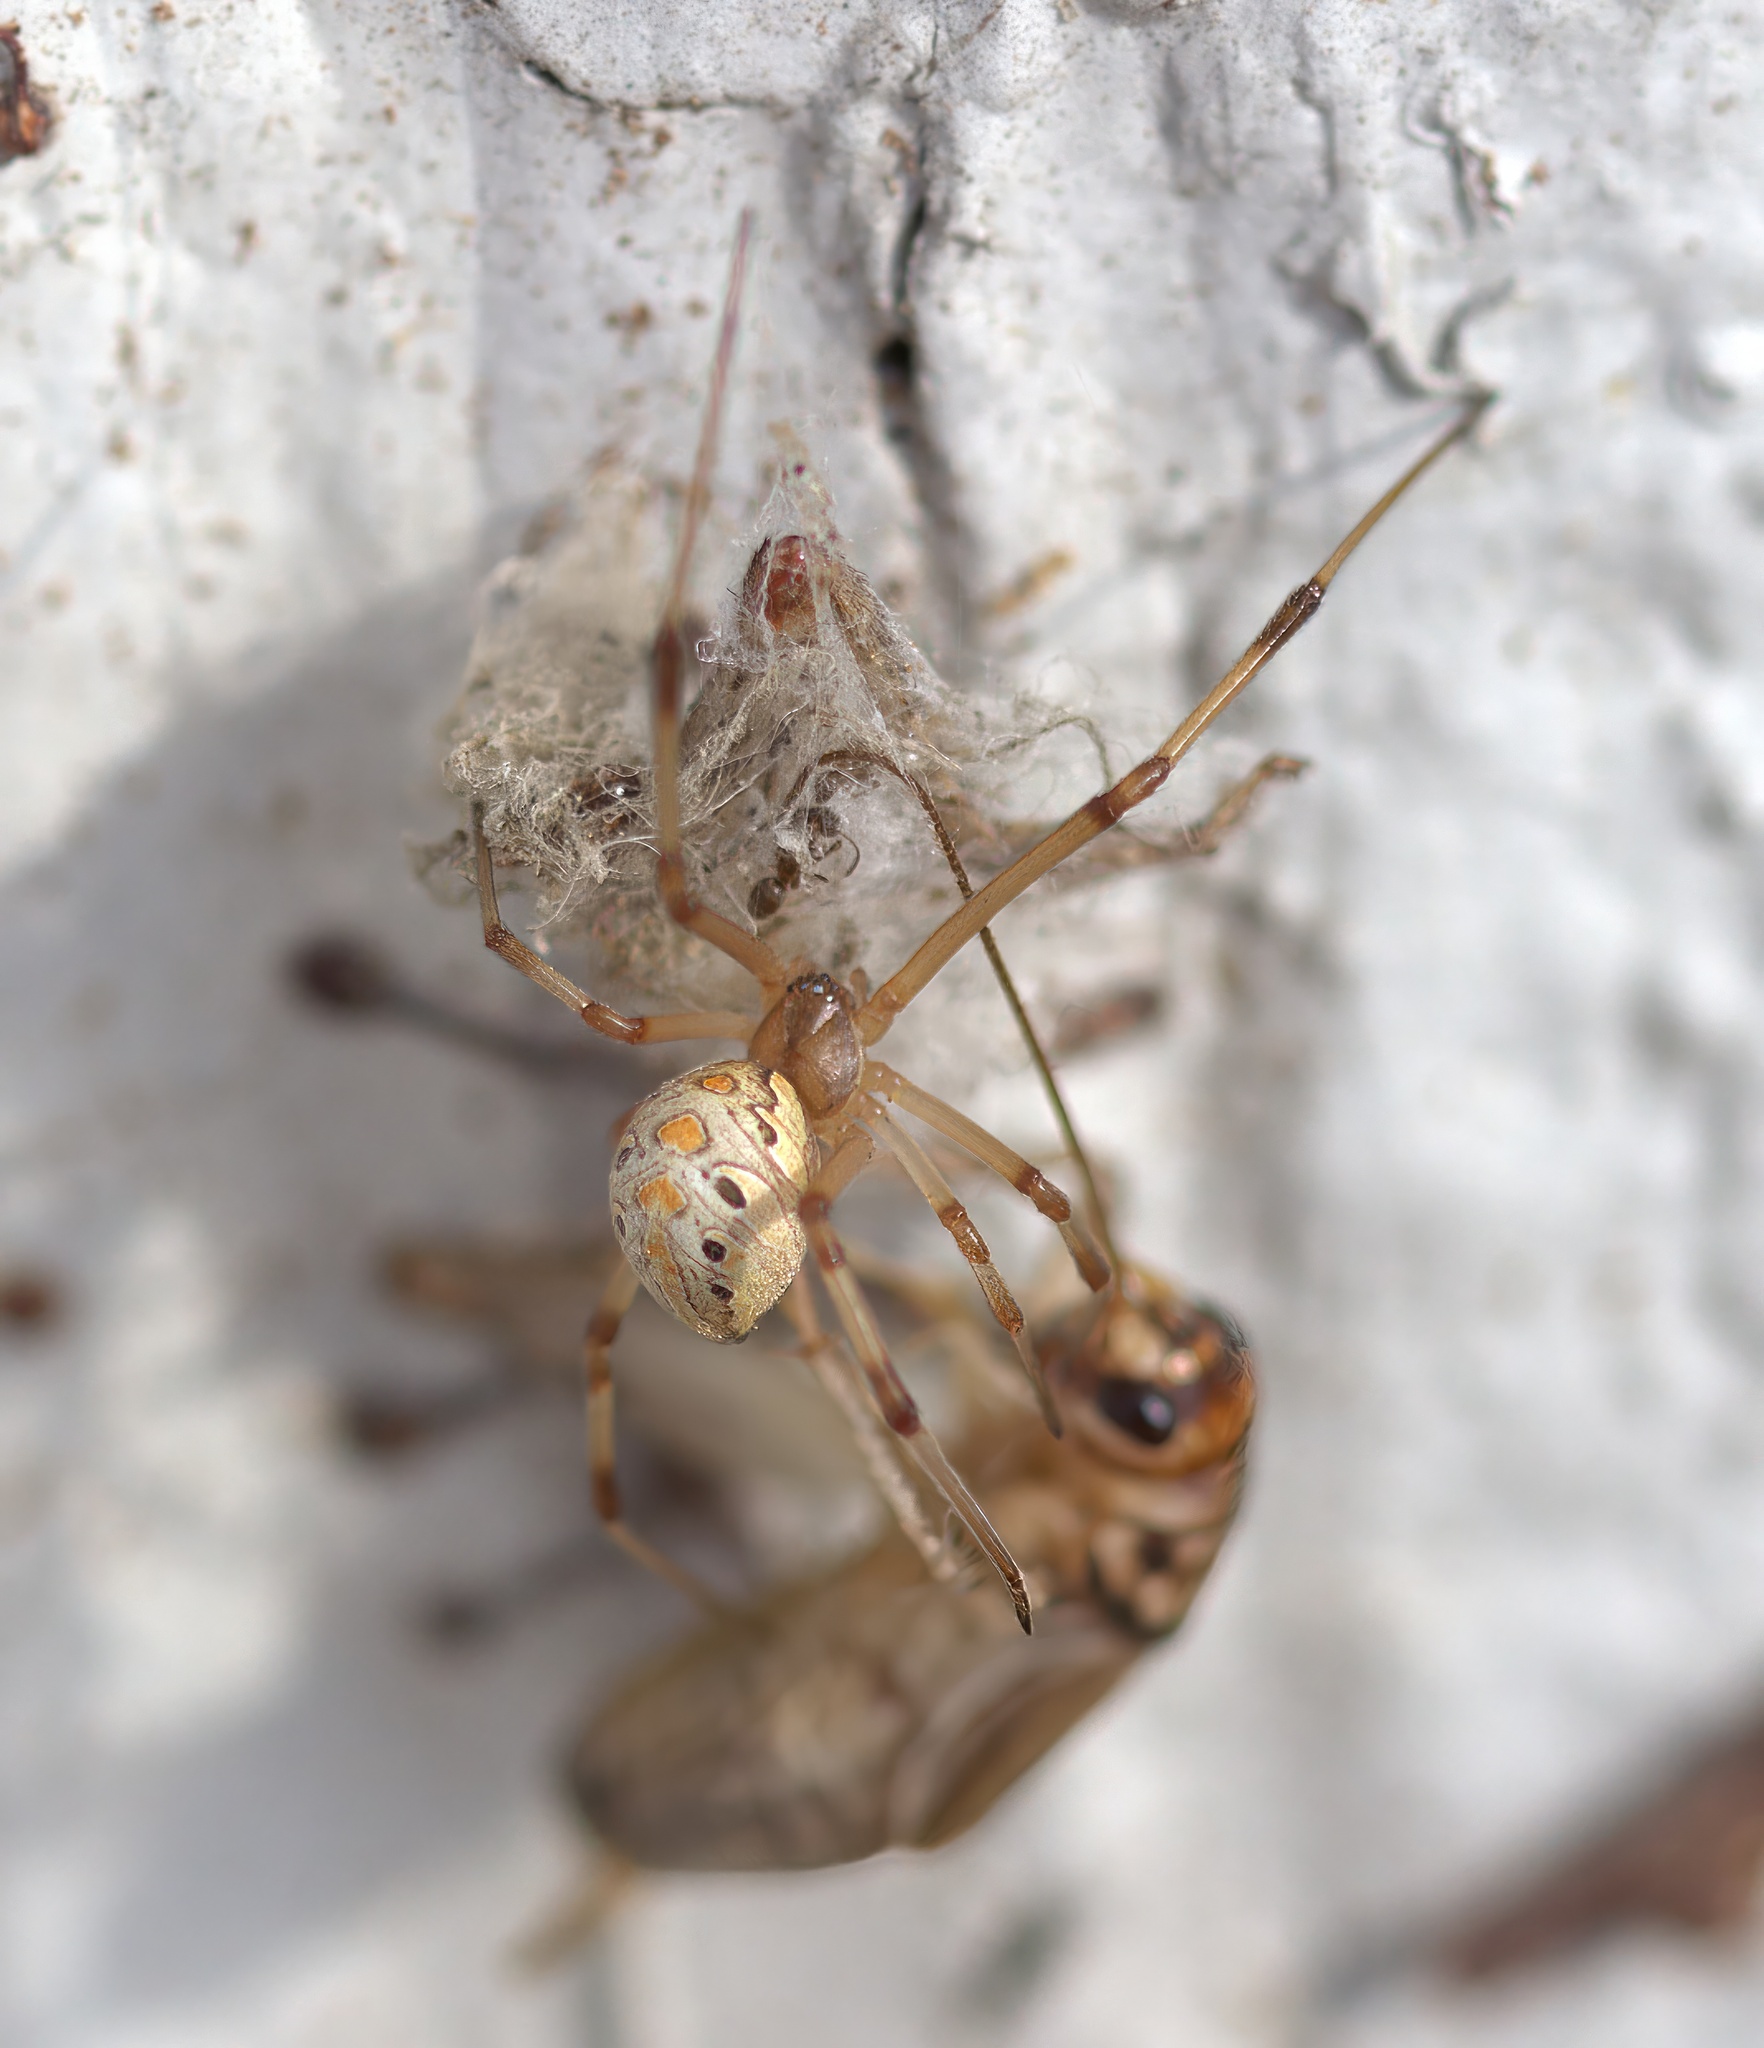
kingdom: Animalia
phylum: Arthropoda
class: Arachnida
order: Araneae
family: Theridiidae
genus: Latrodectus
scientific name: Latrodectus geometricus
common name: Brown widow spider
